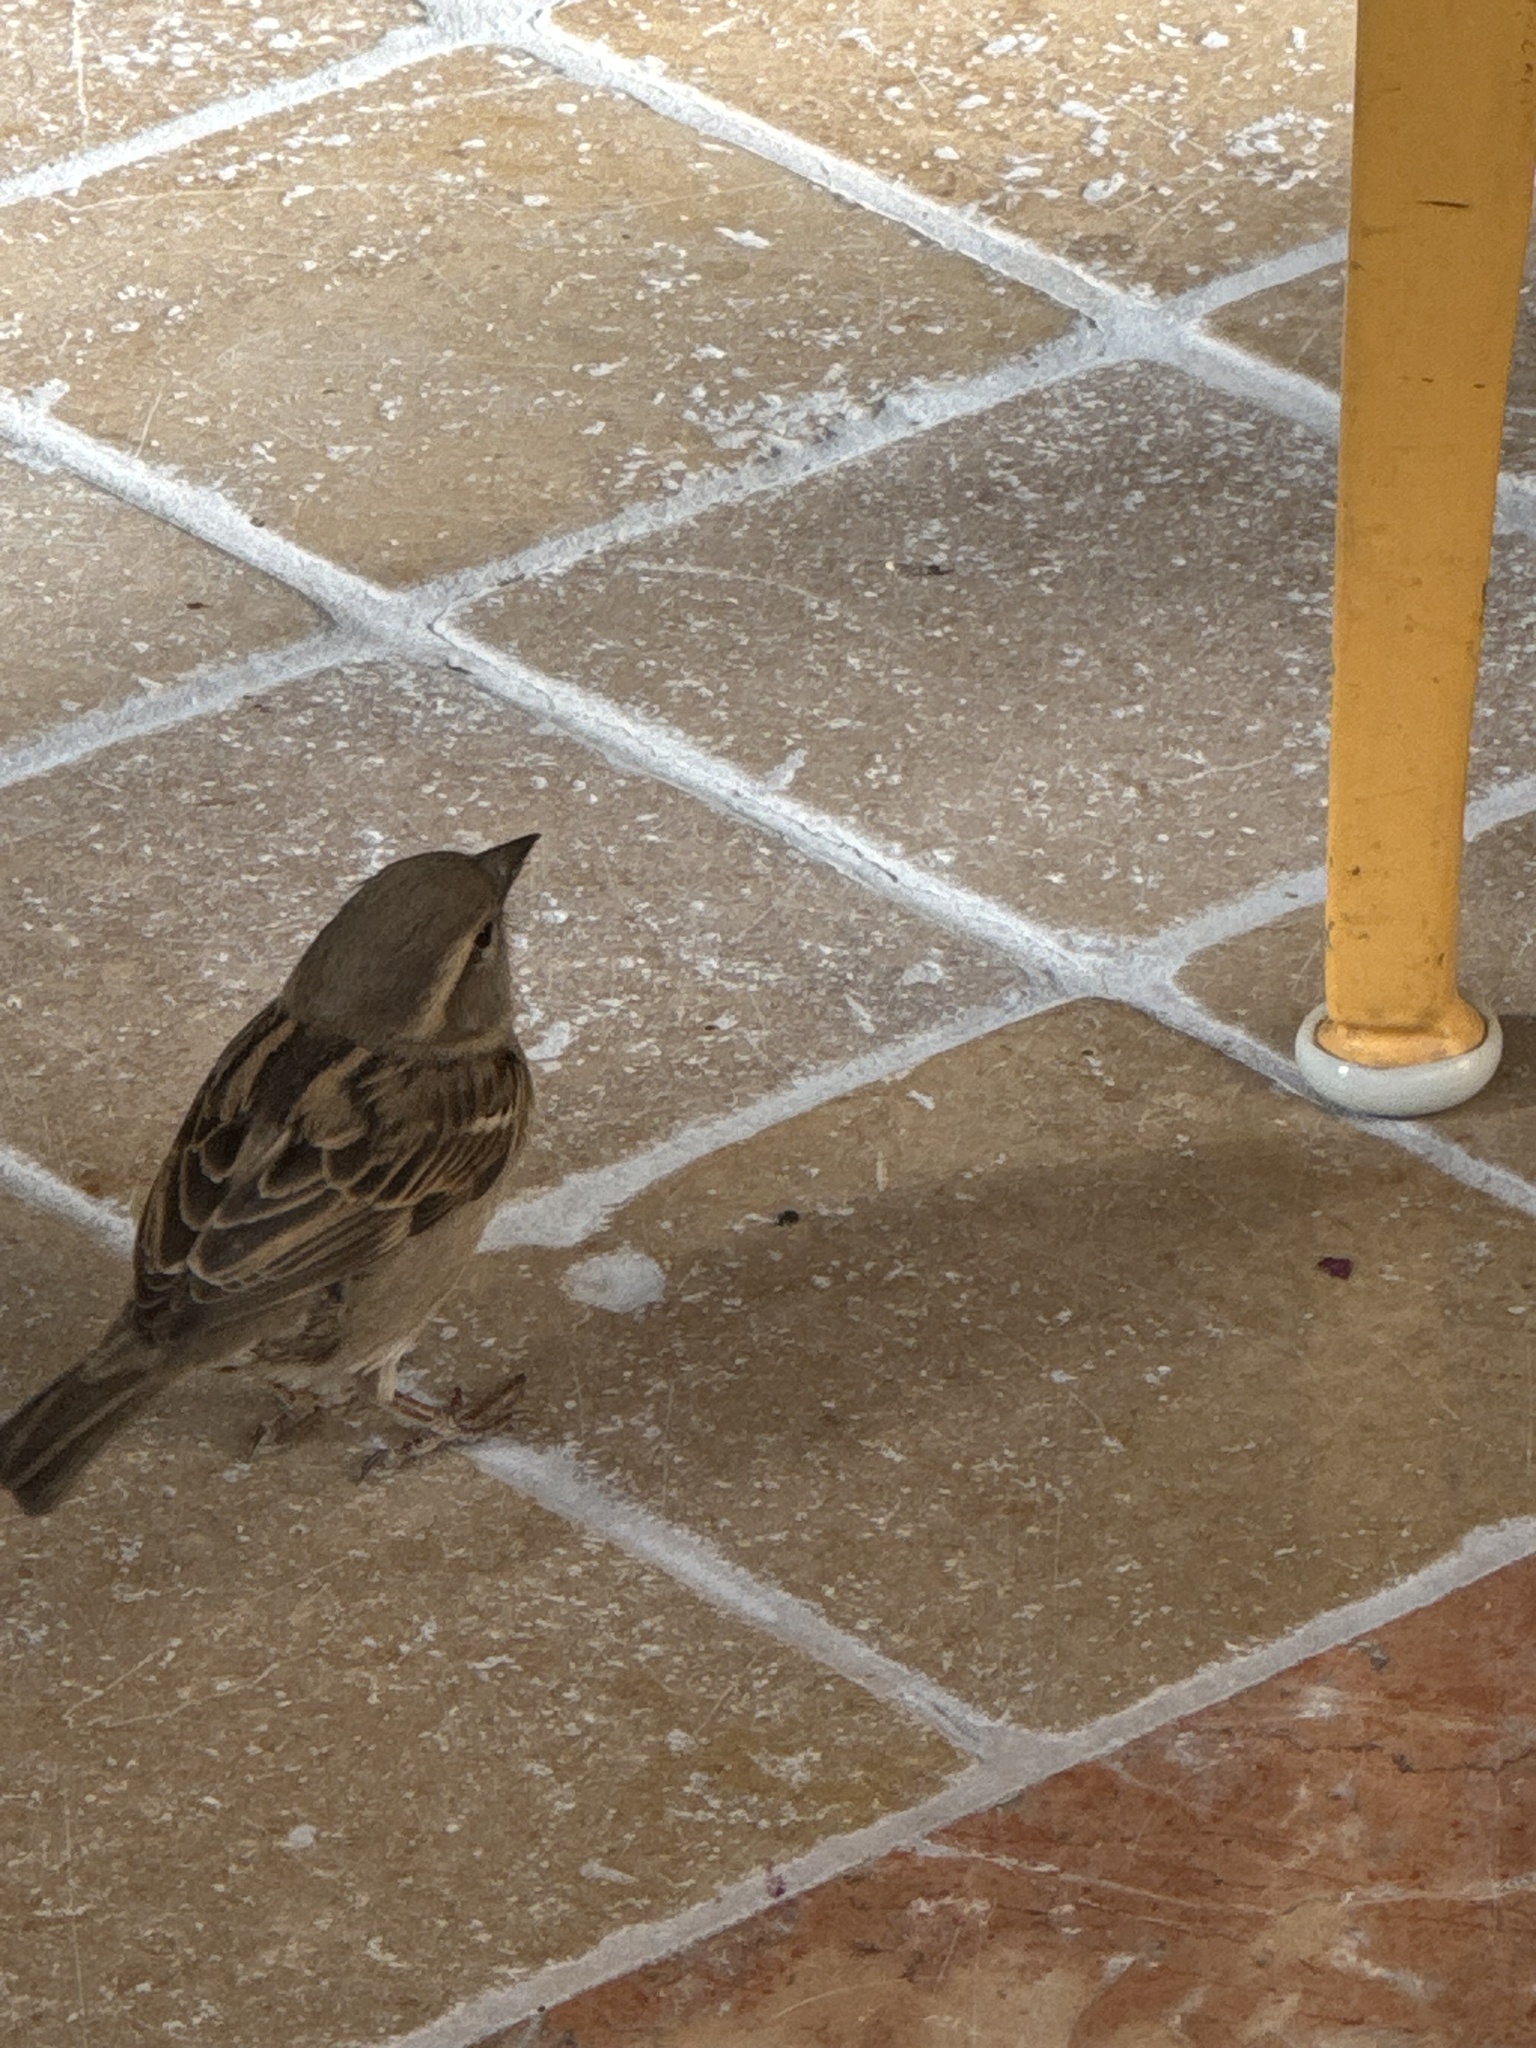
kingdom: Animalia
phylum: Chordata
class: Aves
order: Passeriformes
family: Passeridae
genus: Passer
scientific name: Passer domesticus
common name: House sparrow
